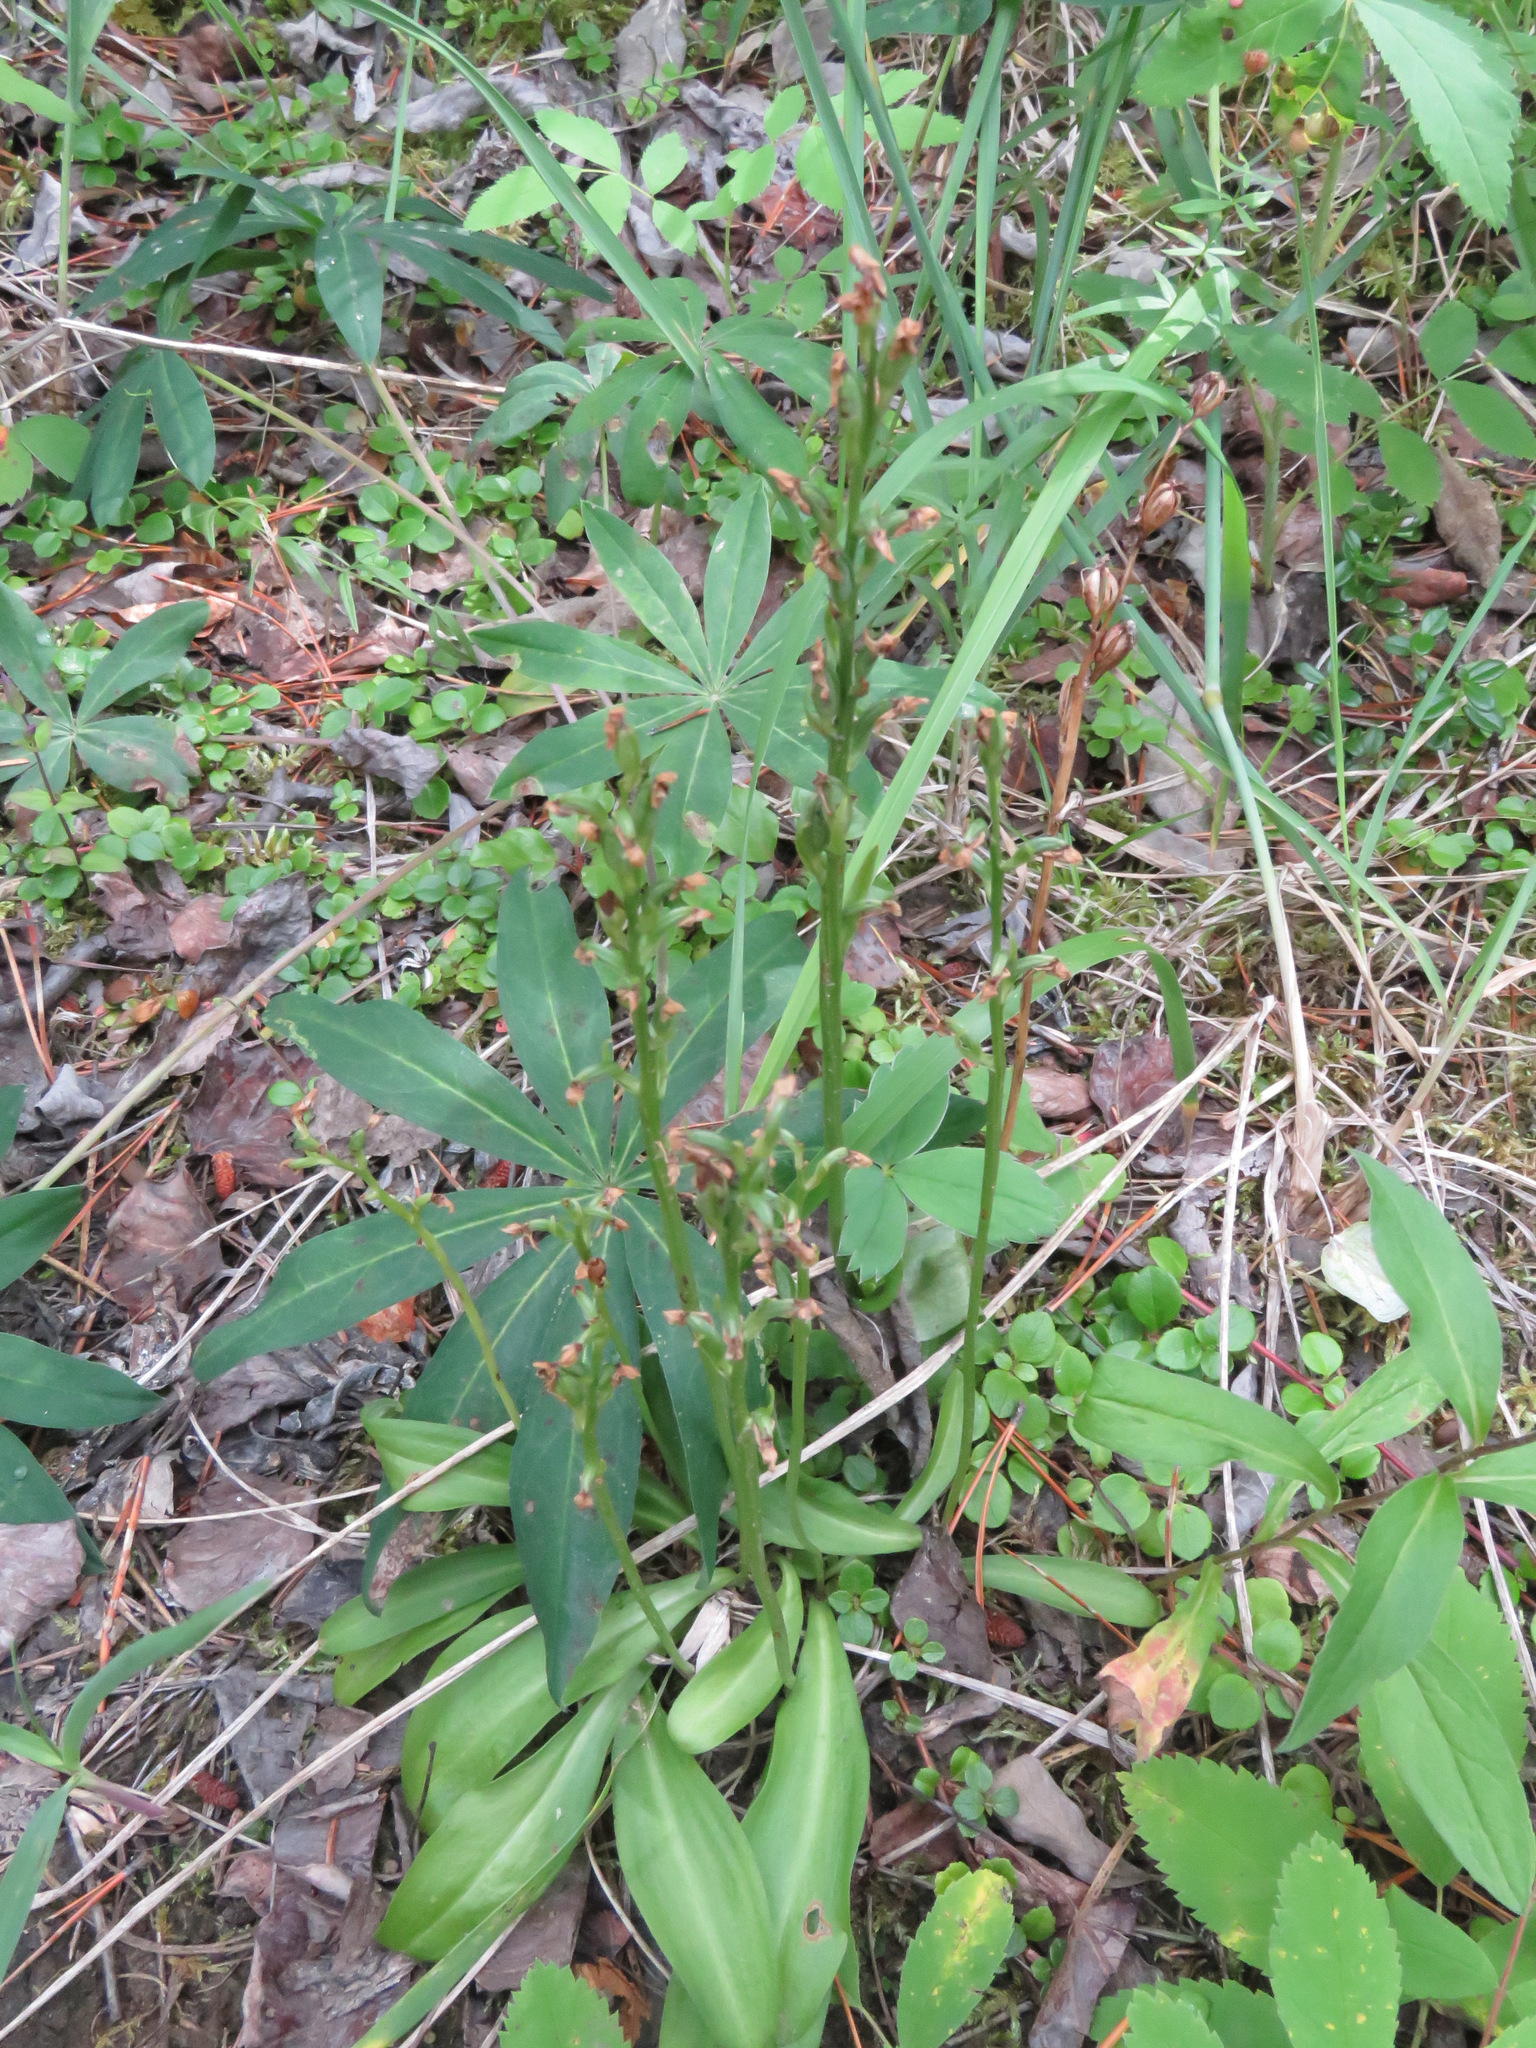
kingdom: Plantae
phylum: Tracheophyta
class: Liliopsida
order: Asparagales
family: Orchidaceae
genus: Platanthera
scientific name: Platanthera obtusata
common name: Blunt bog orchid
